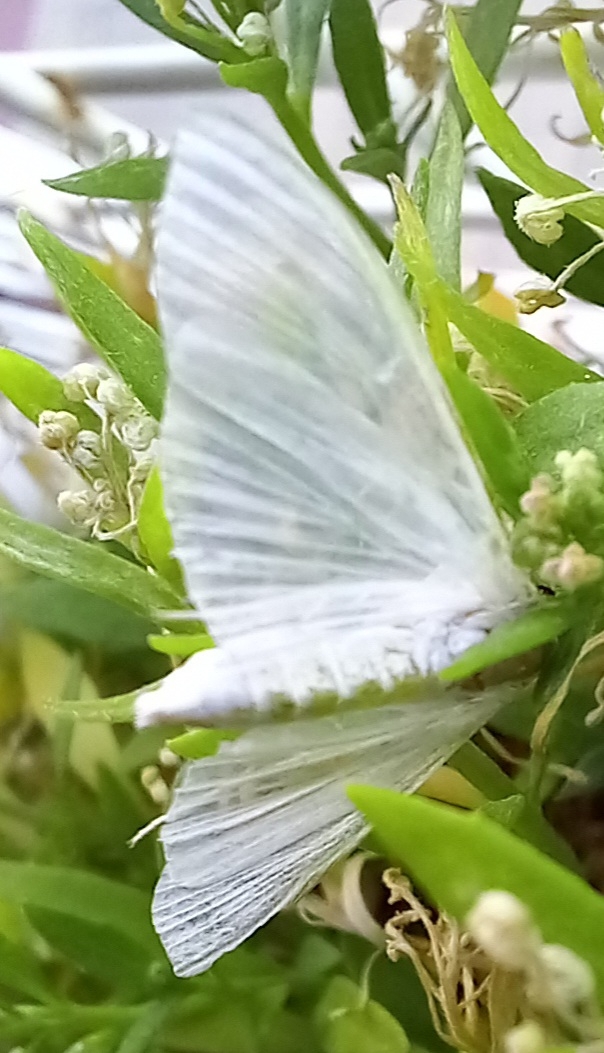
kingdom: Animalia
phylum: Arthropoda
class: Insecta
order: Lepidoptera
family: Crambidae
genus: Palpita
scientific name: Palpita vitrealis
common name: Olive-tree pearl
